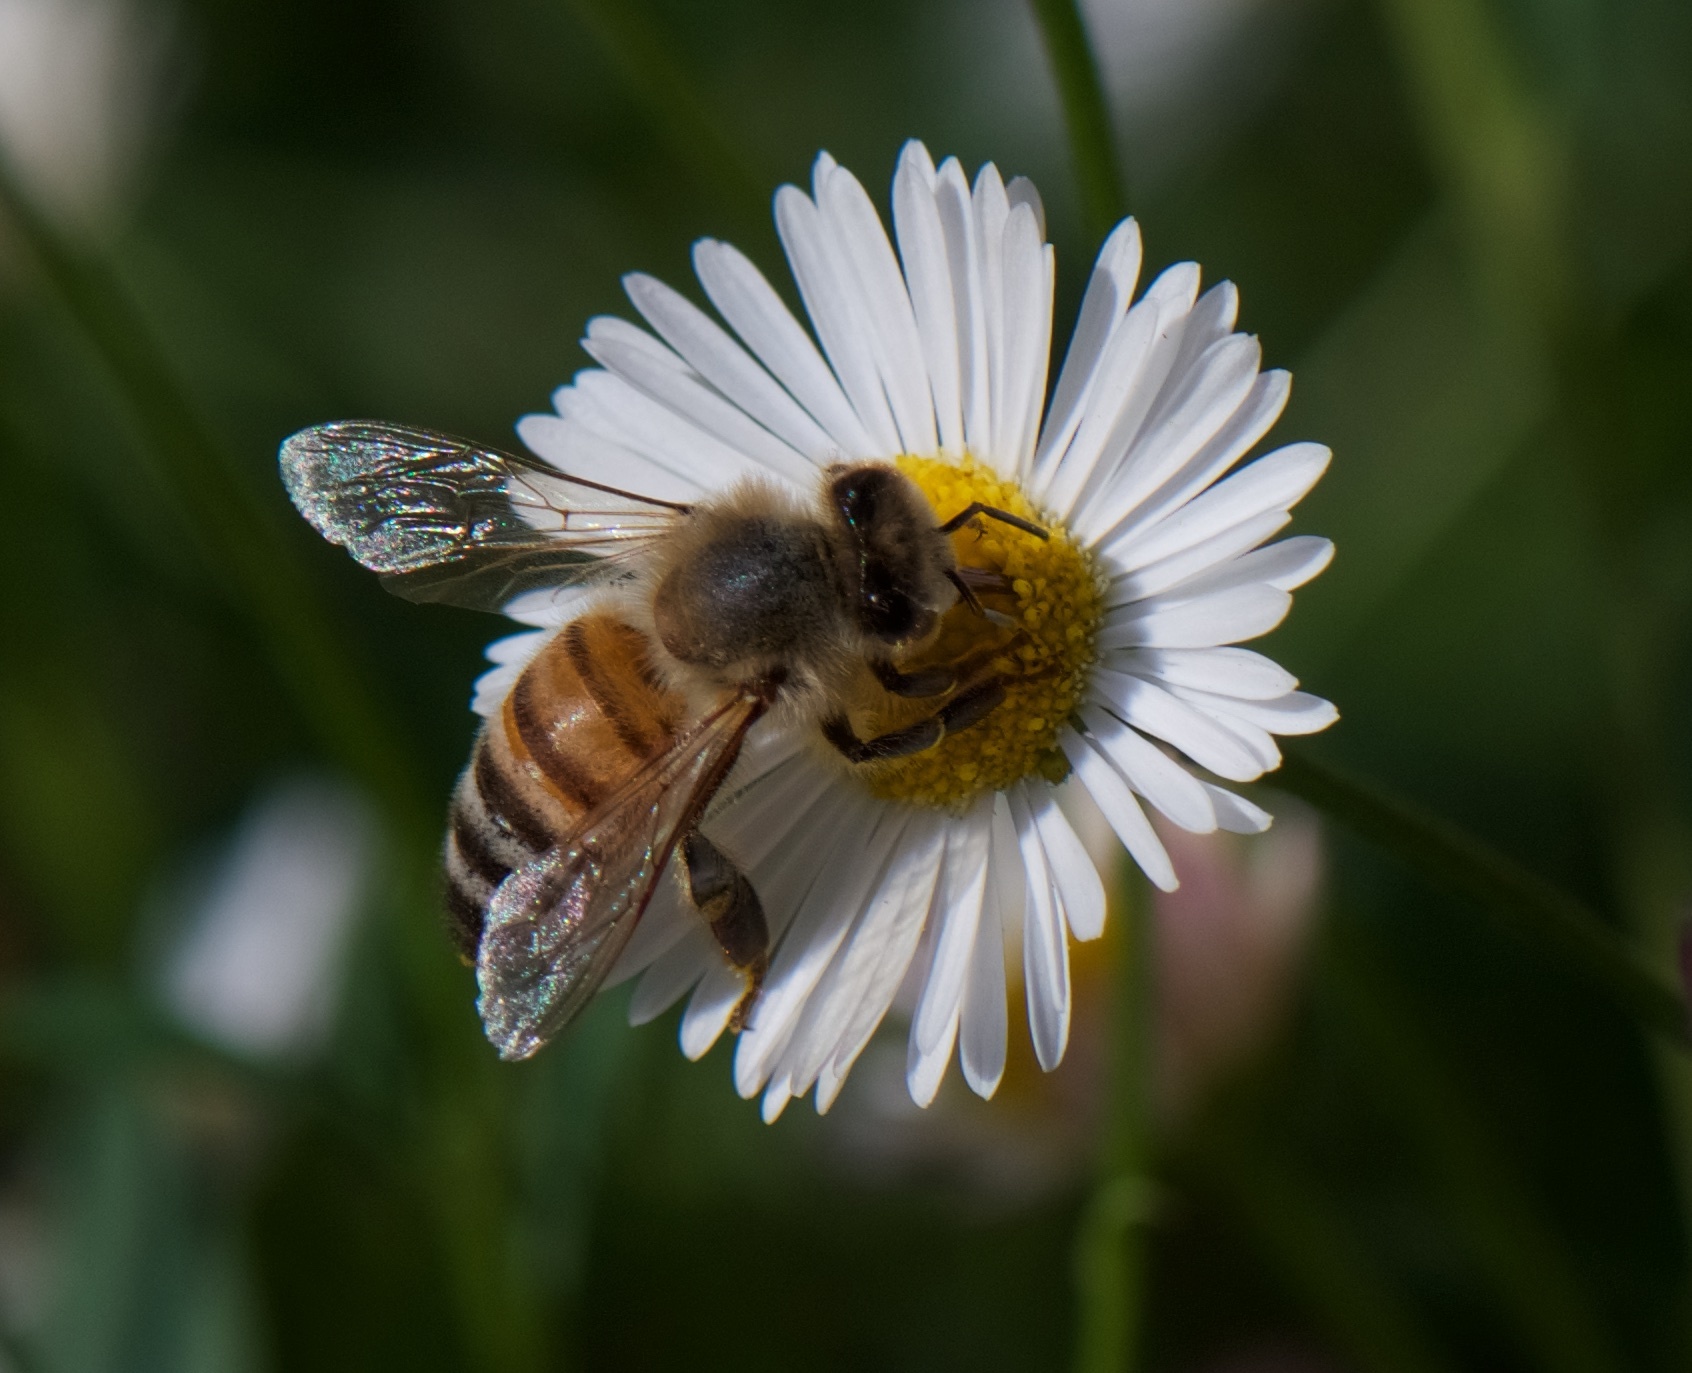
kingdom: Animalia
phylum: Arthropoda
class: Insecta
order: Hymenoptera
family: Apidae
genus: Apis
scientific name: Apis mellifera
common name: Honey bee
